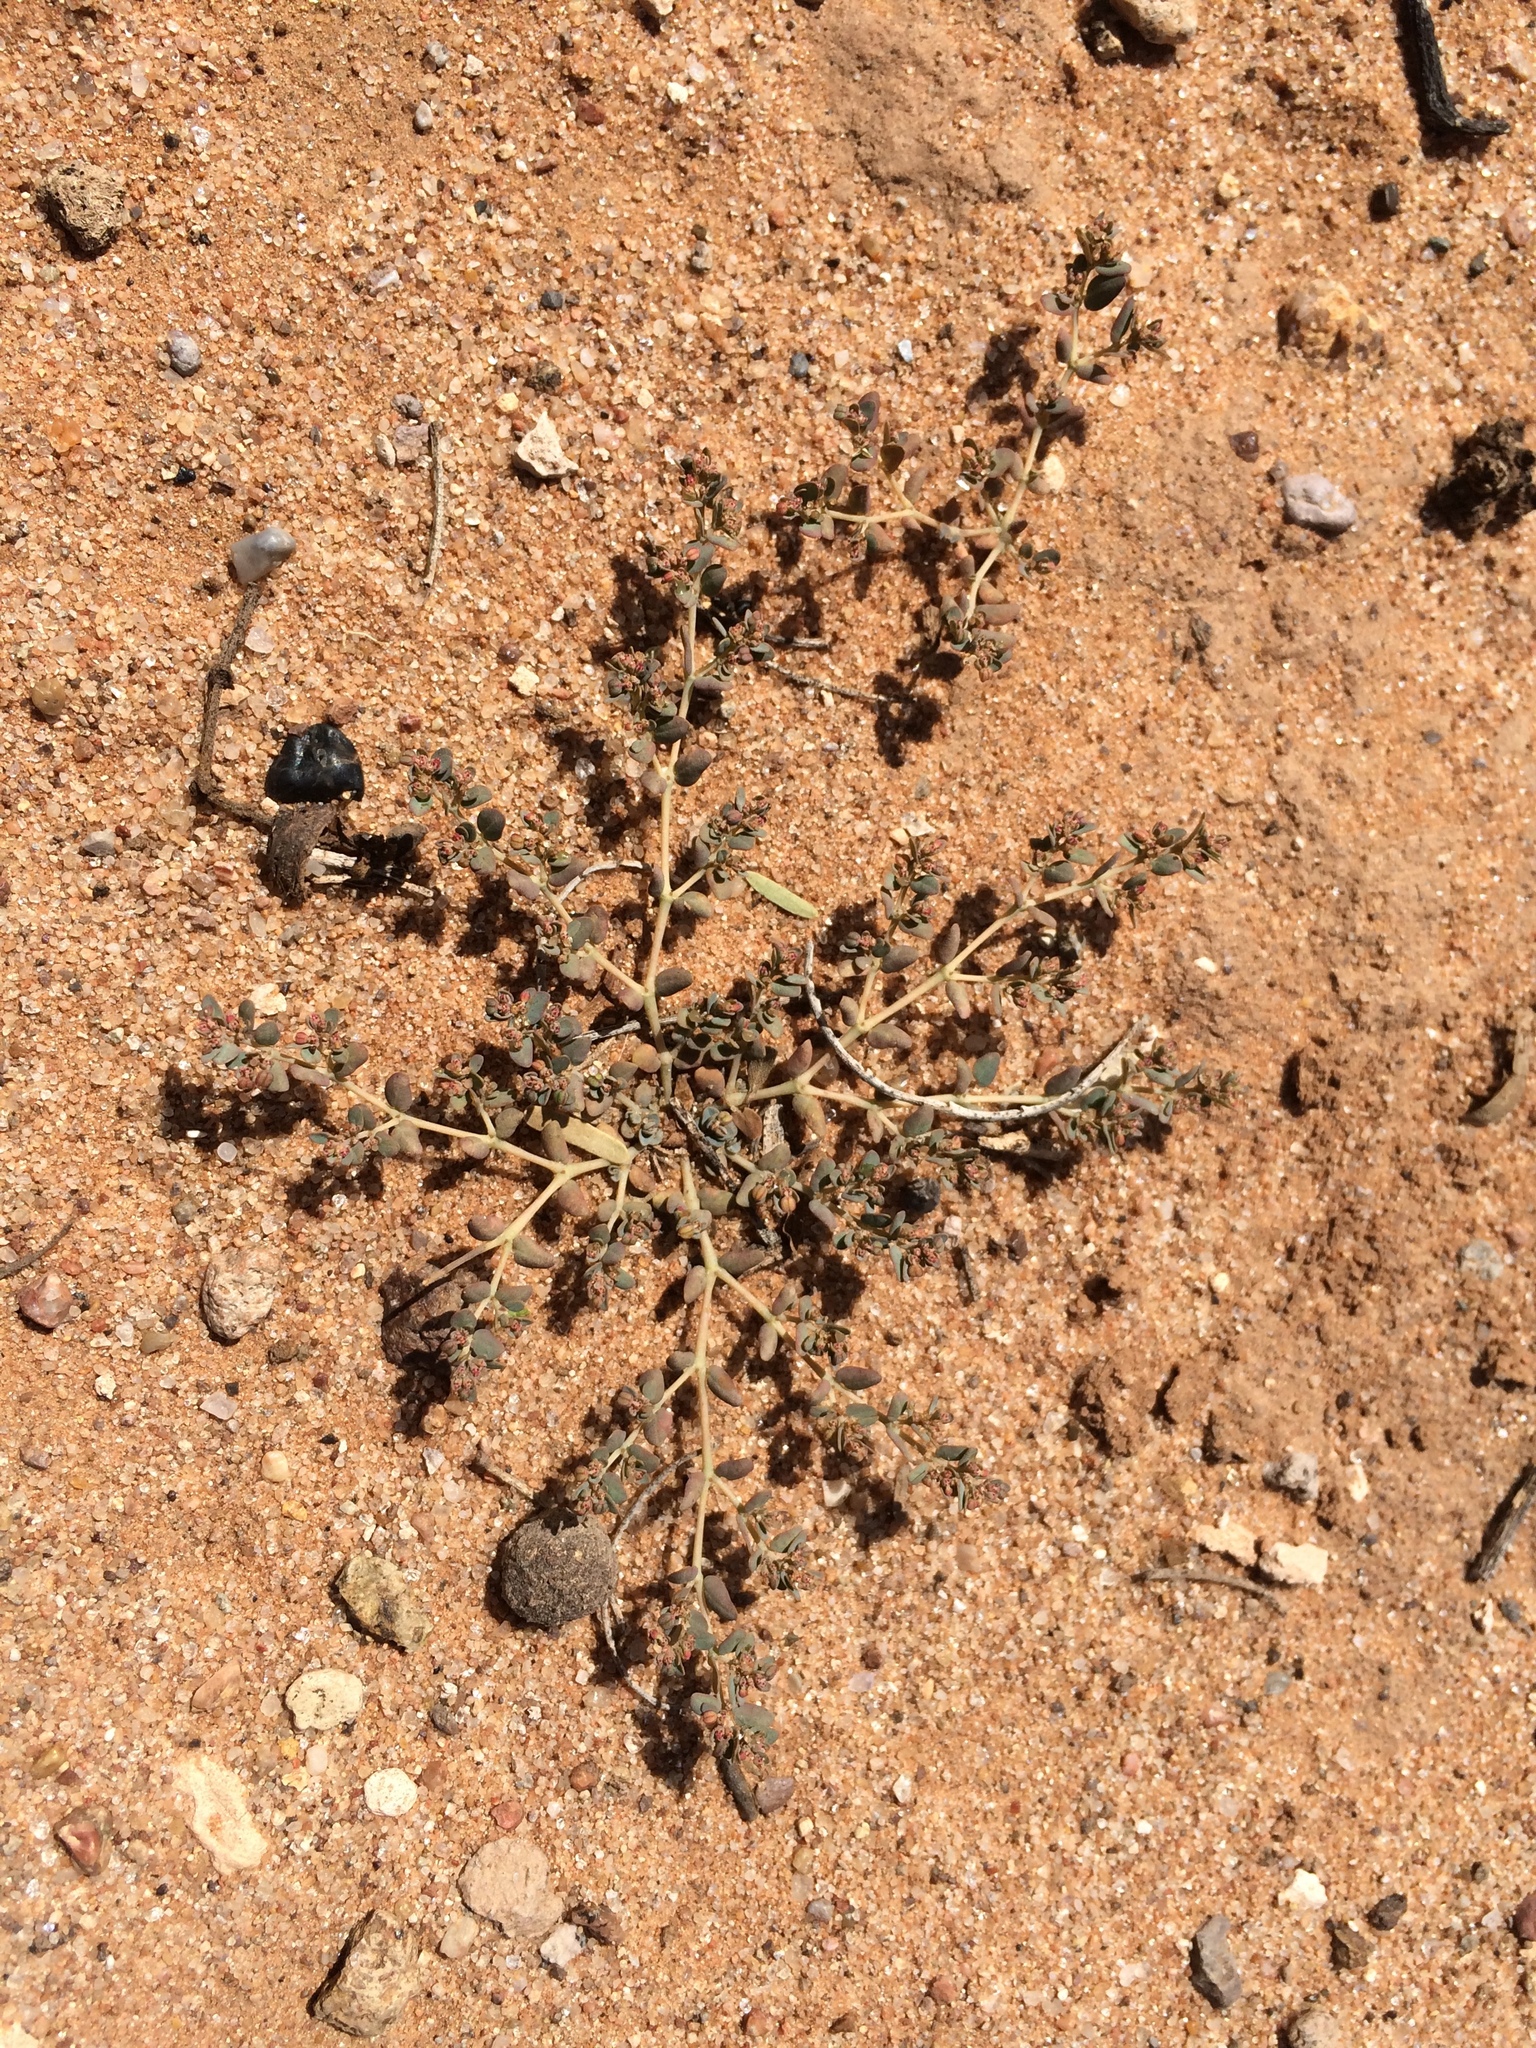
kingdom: Plantae
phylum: Tracheophyta
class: Magnoliopsida
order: Malpighiales
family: Euphorbiaceae
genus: Euphorbia
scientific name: Euphorbia micromera
